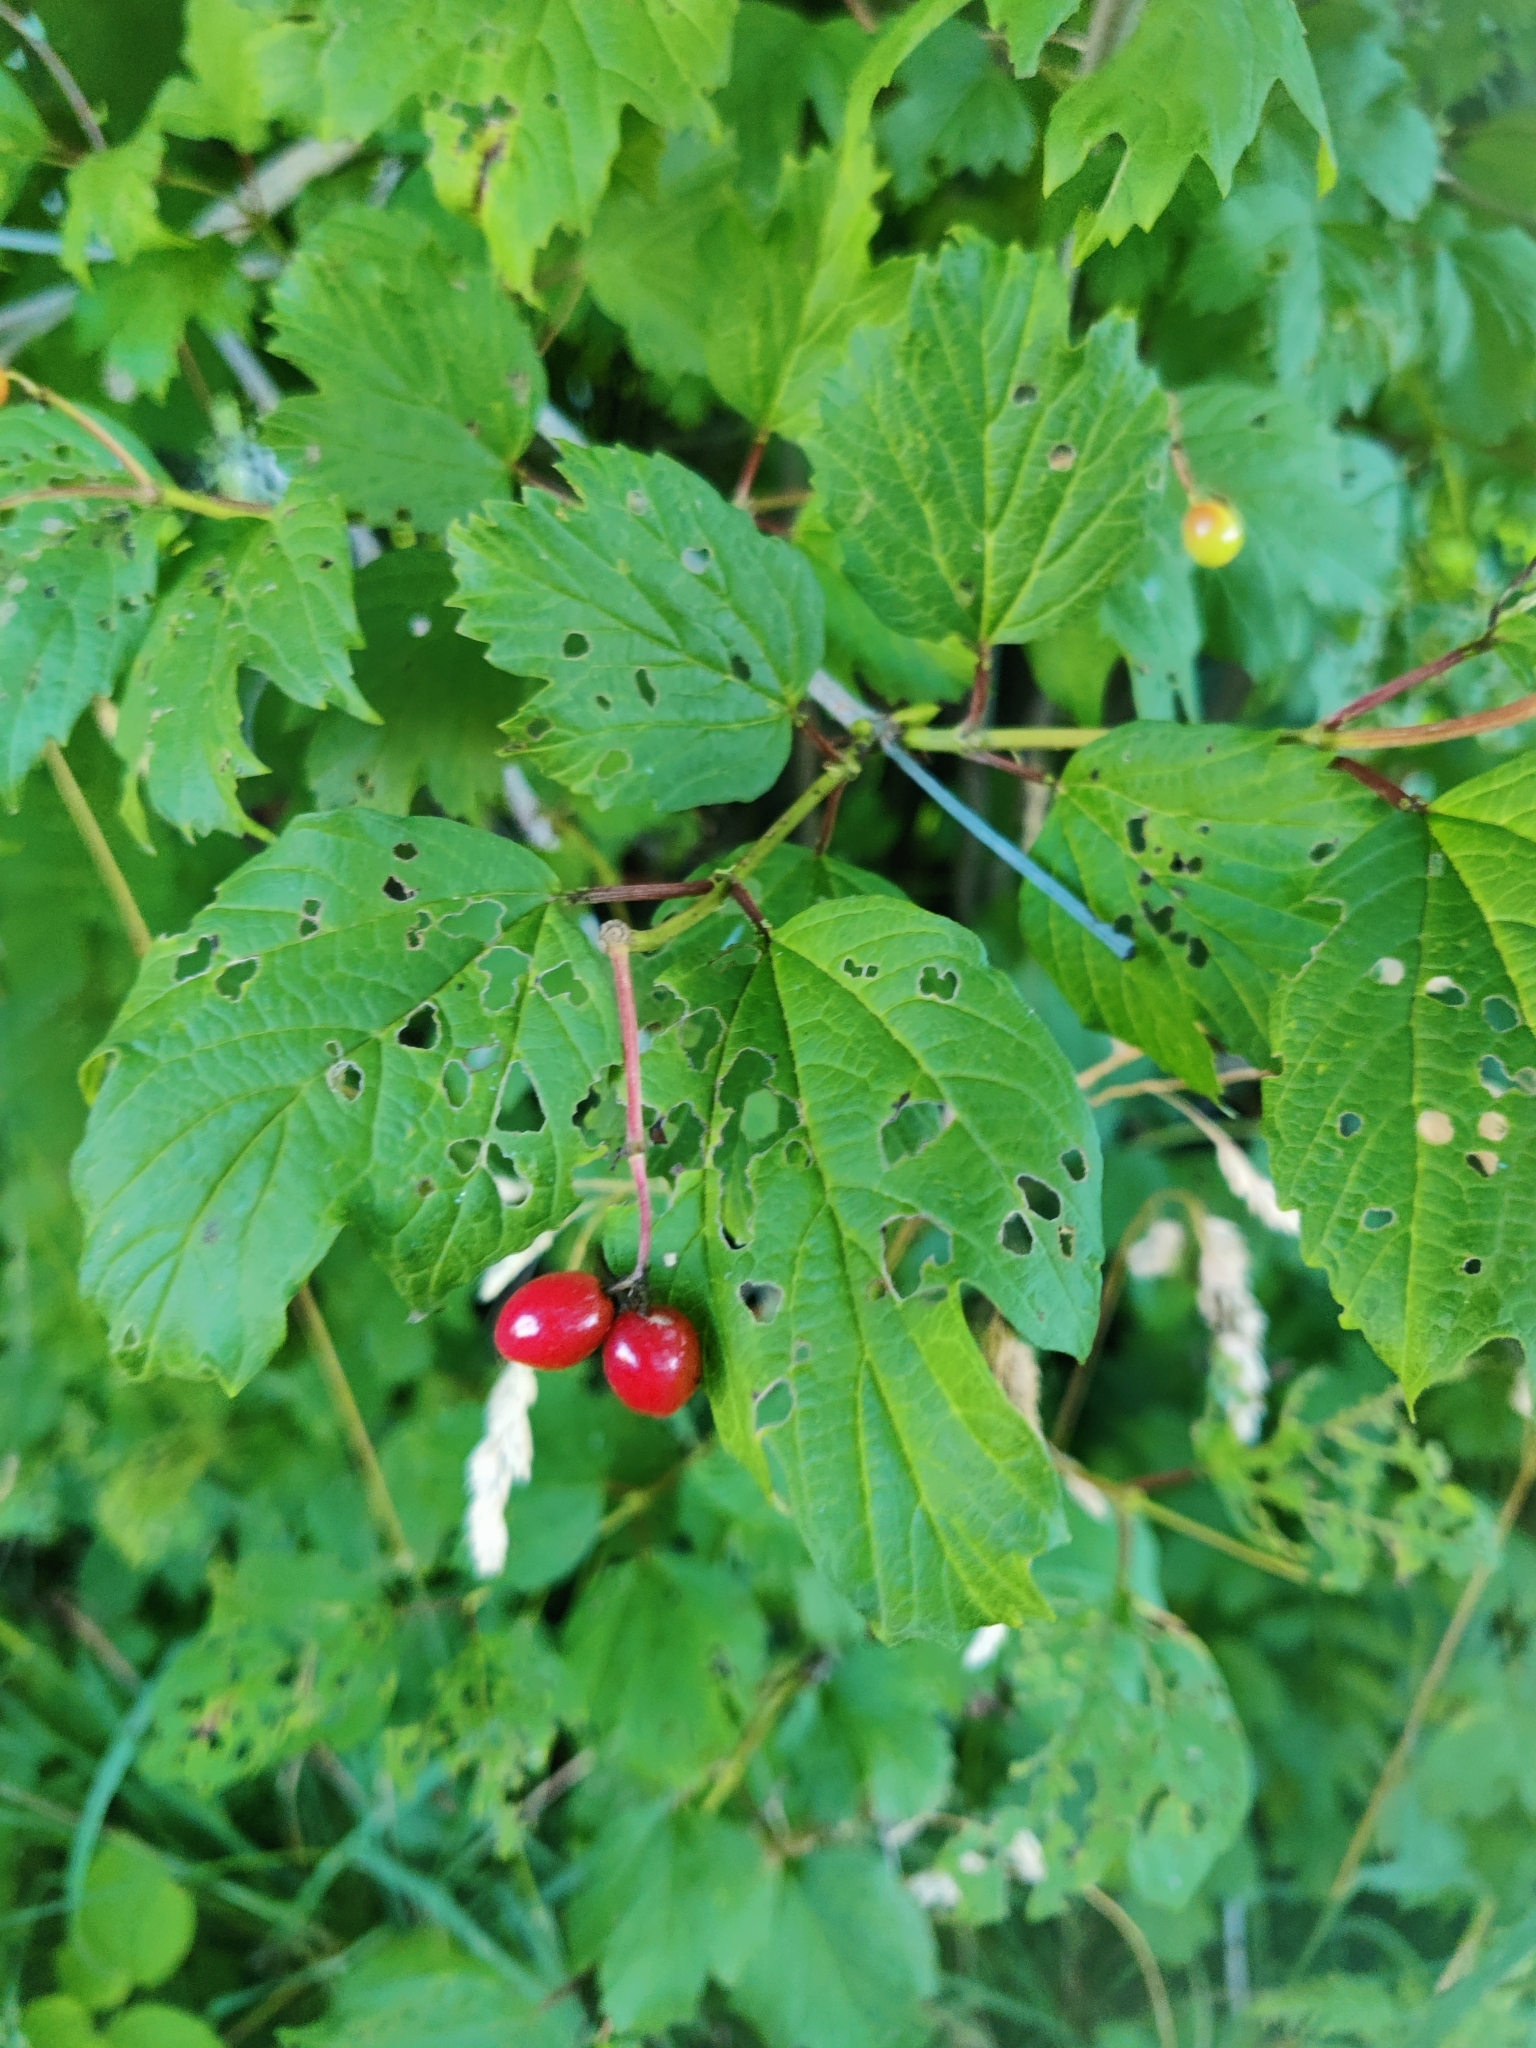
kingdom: Plantae
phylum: Tracheophyta
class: Magnoliopsida
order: Dipsacales
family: Viburnaceae
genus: Viburnum
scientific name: Viburnum opulus
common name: Guelder-rose
